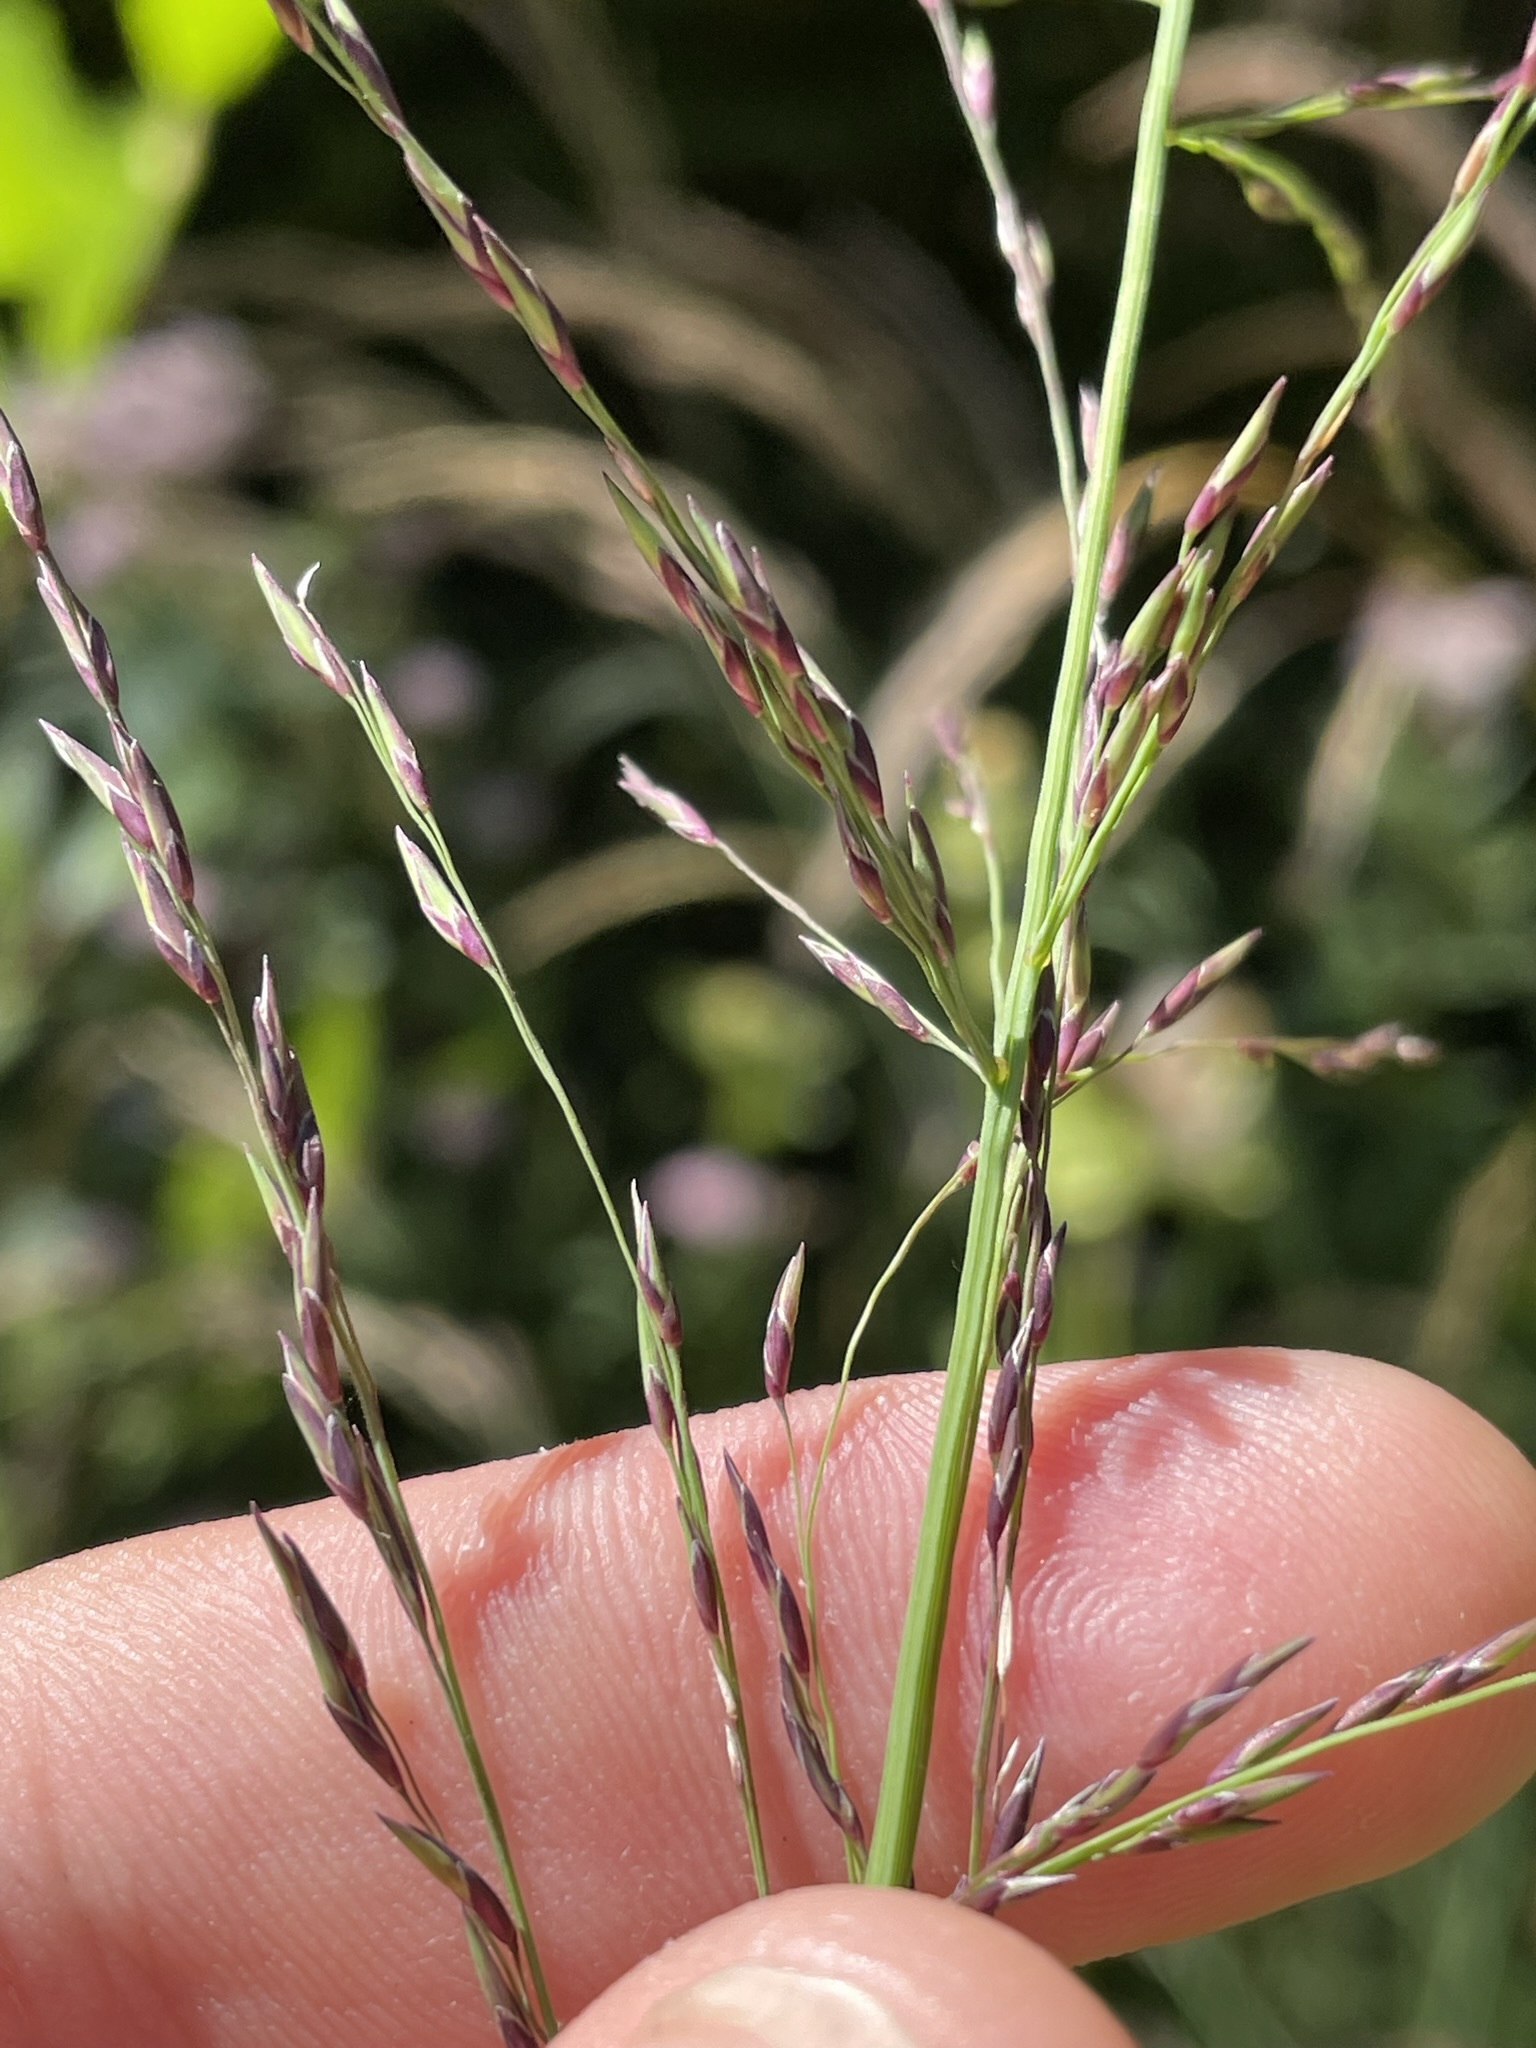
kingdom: Plantae
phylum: Tracheophyta
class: Liliopsida
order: Poales
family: Poaceae
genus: Molinia
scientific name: Molinia caerulea
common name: Purple moor-grass
